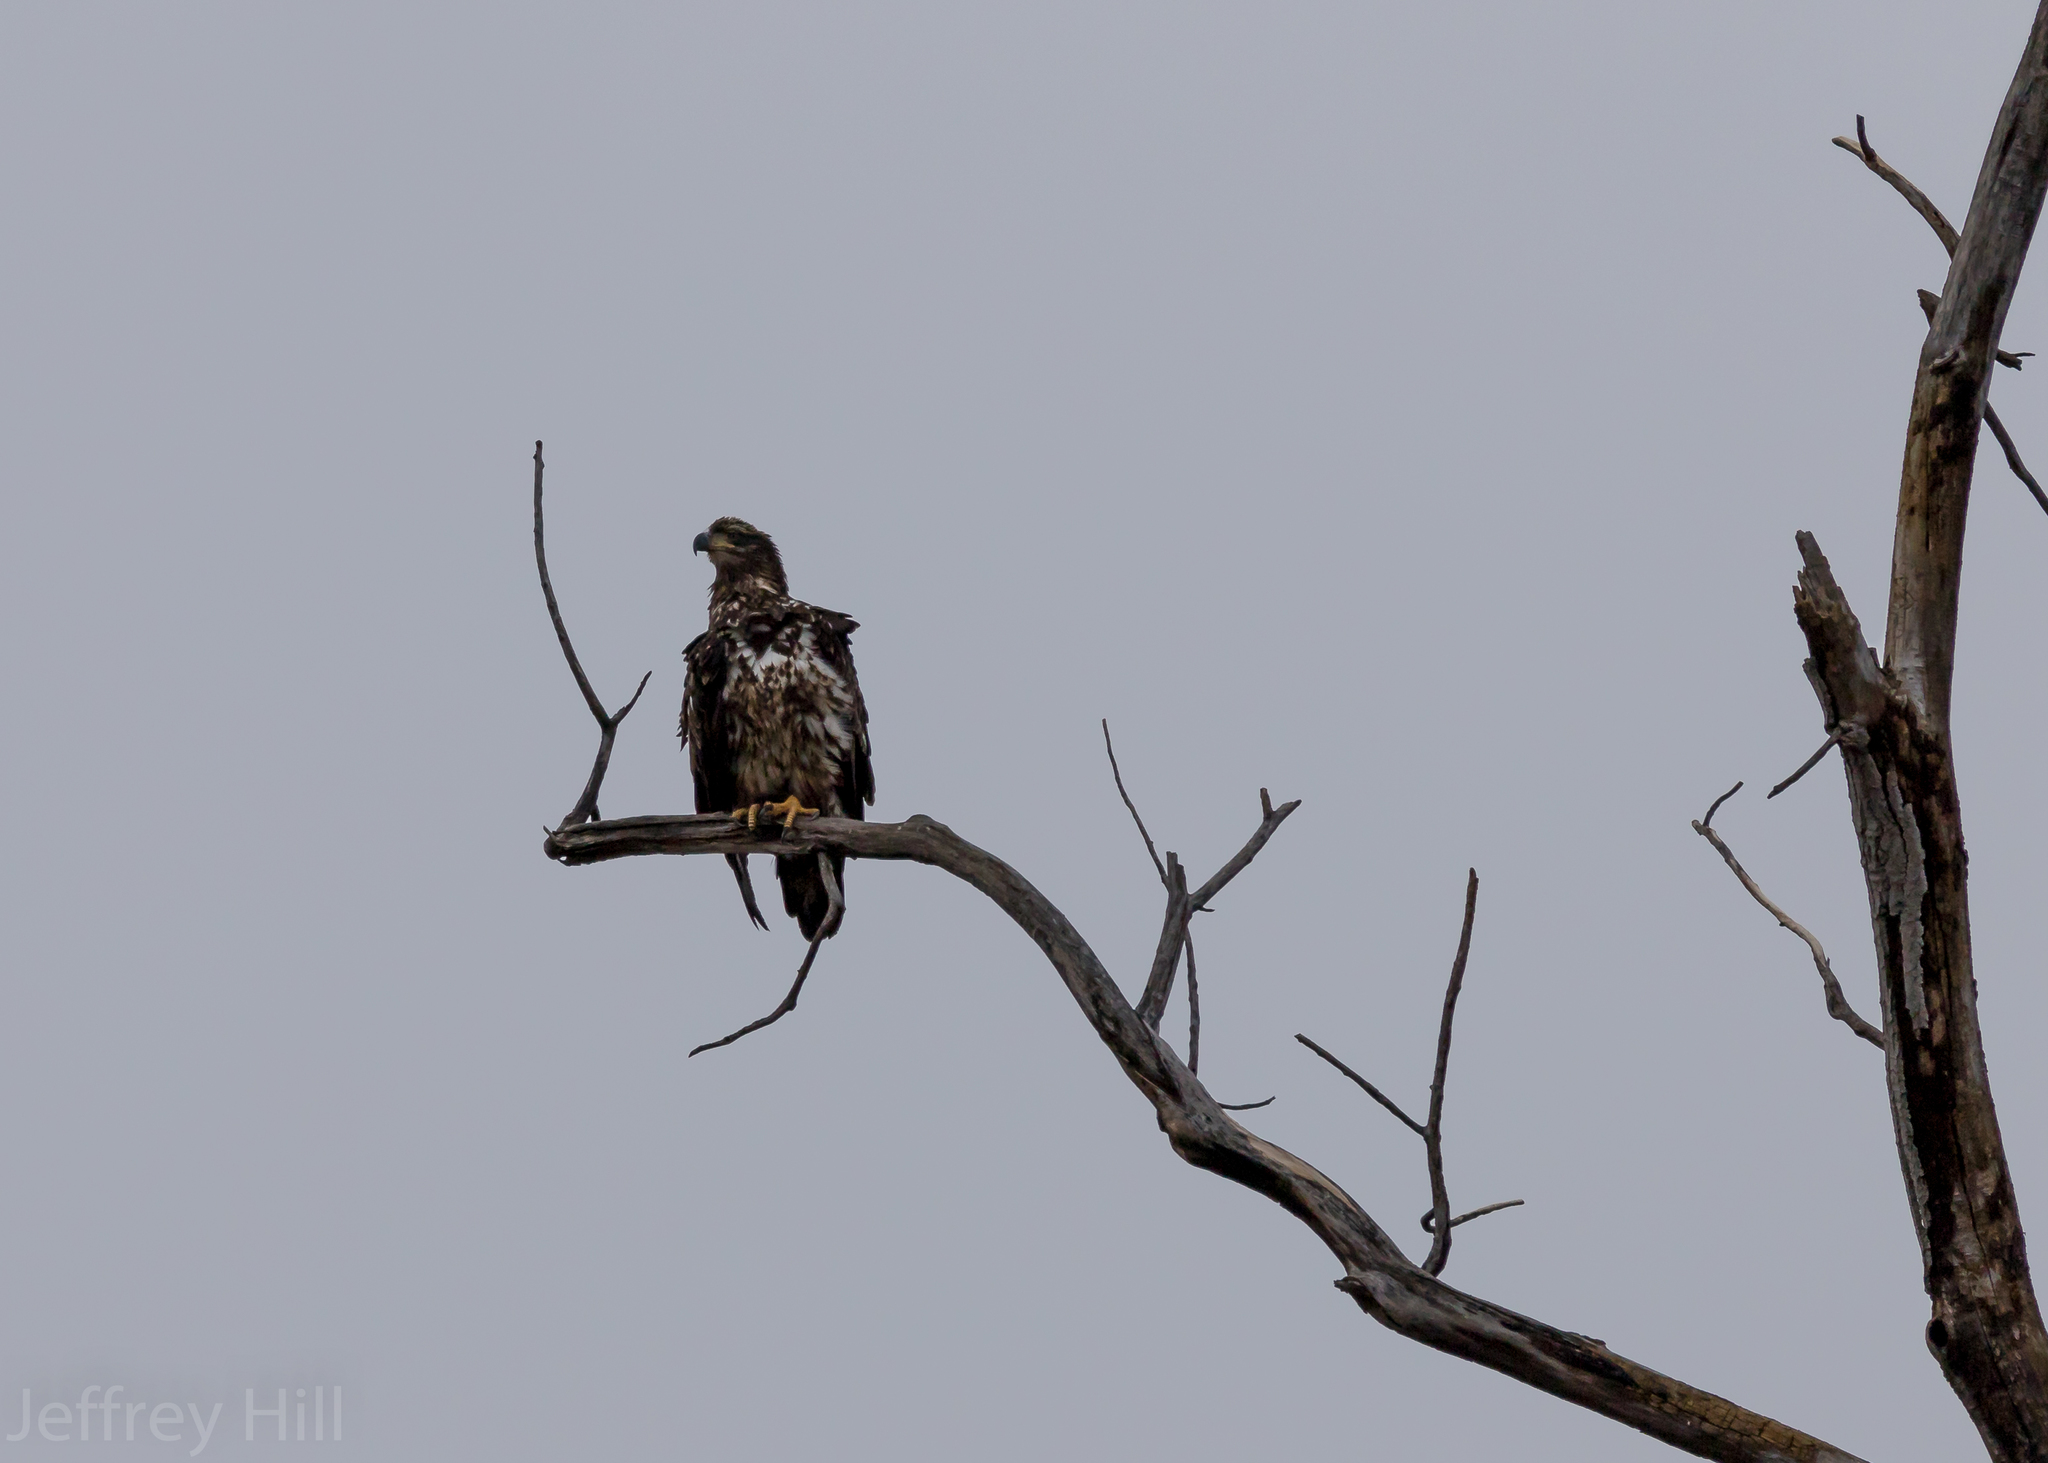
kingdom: Animalia
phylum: Chordata
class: Aves
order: Accipitriformes
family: Accipitridae
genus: Haliaeetus
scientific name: Haliaeetus leucocephalus
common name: Bald eagle
